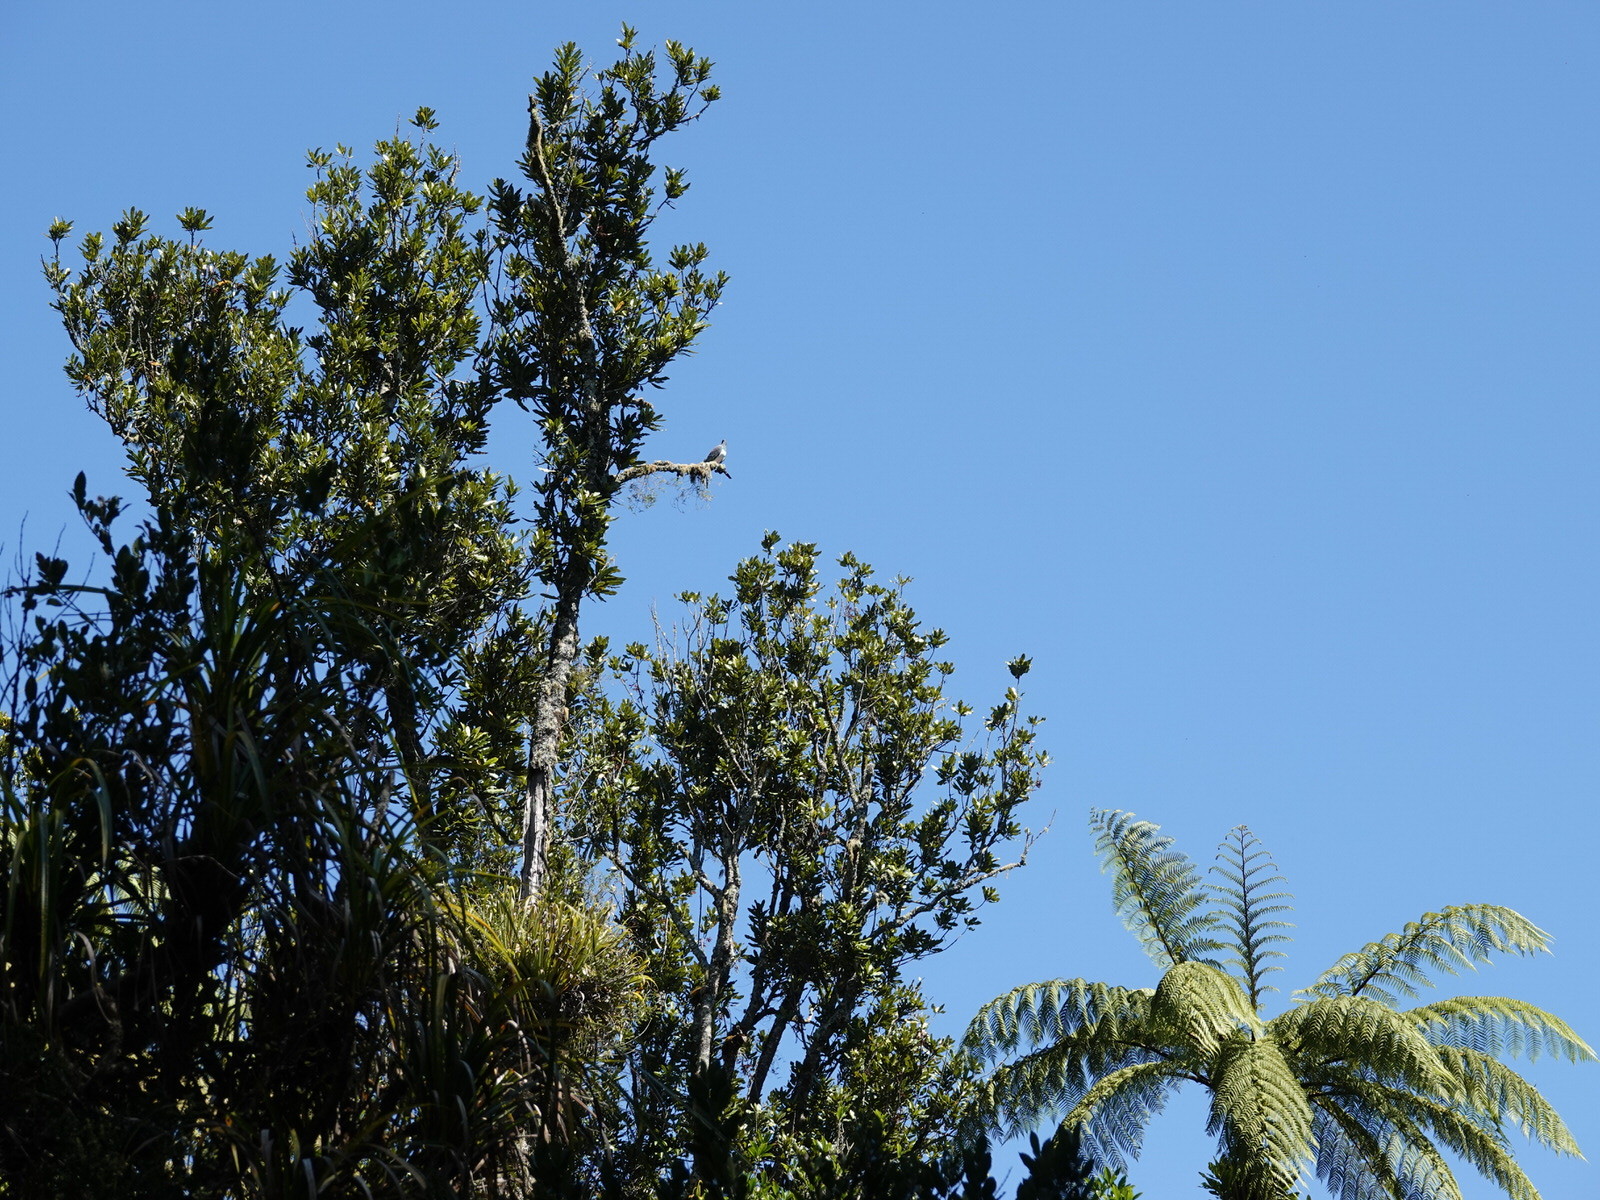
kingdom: Animalia
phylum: Chordata
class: Aves
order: Columbiformes
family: Columbidae
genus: Hemiphaga
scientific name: Hemiphaga novaeseelandiae
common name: New zealand pigeon
